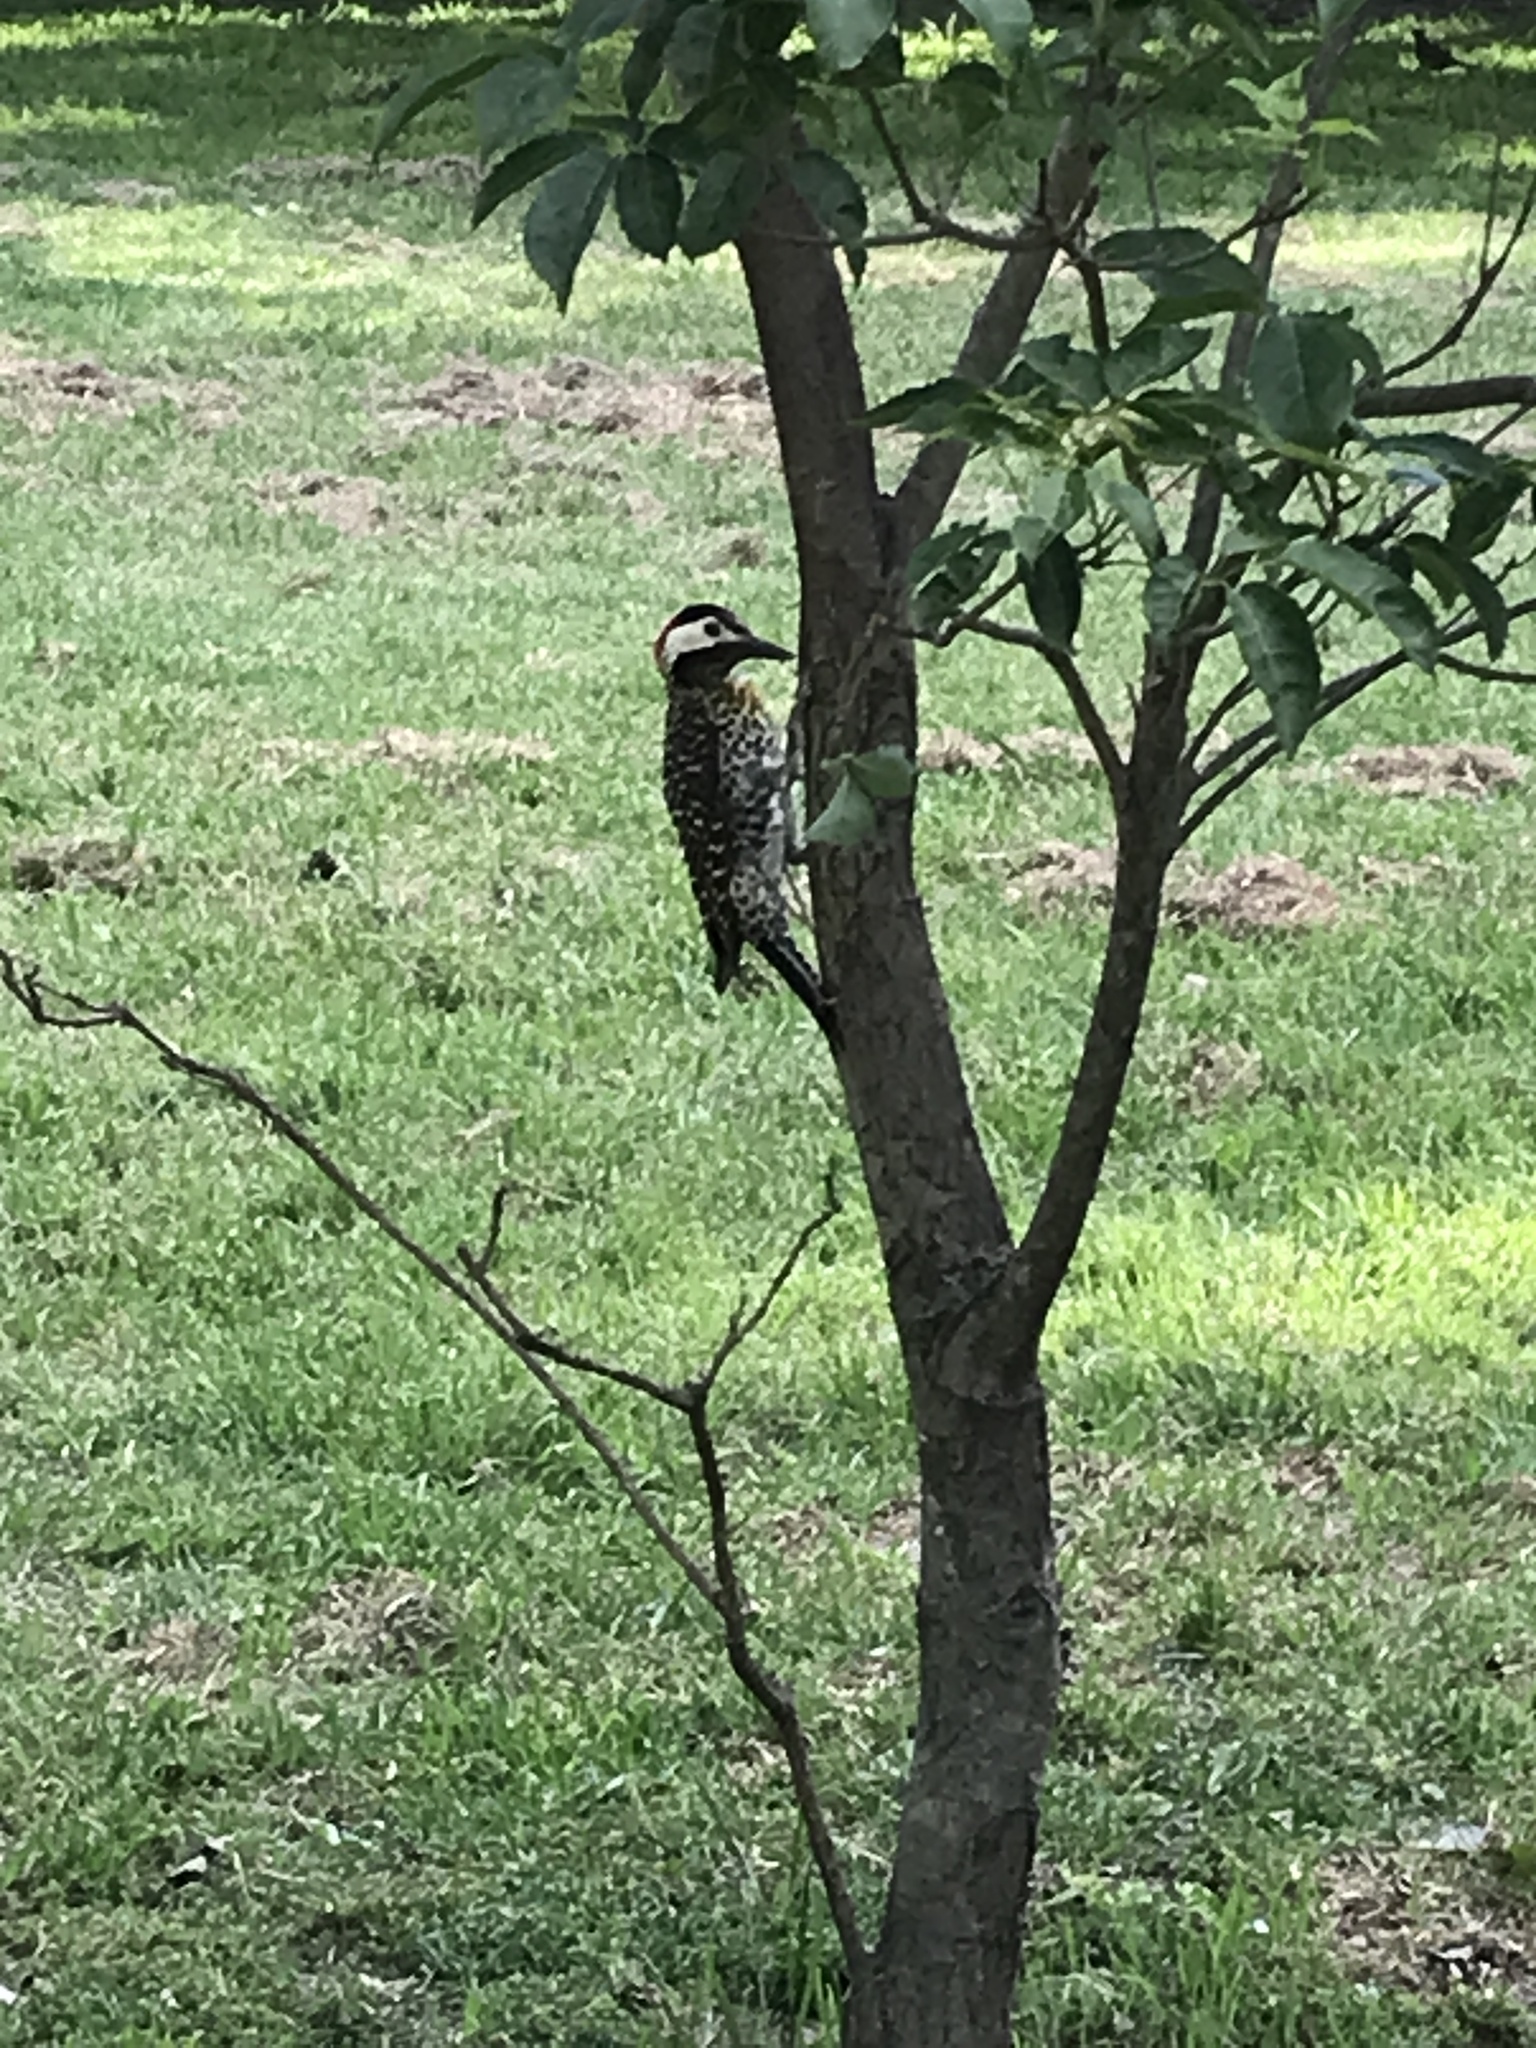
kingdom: Animalia
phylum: Chordata
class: Aves
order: Piciformes
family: Picidae
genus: Colaptes
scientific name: Colaptes melanochloros
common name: Green-barred woodpecker
